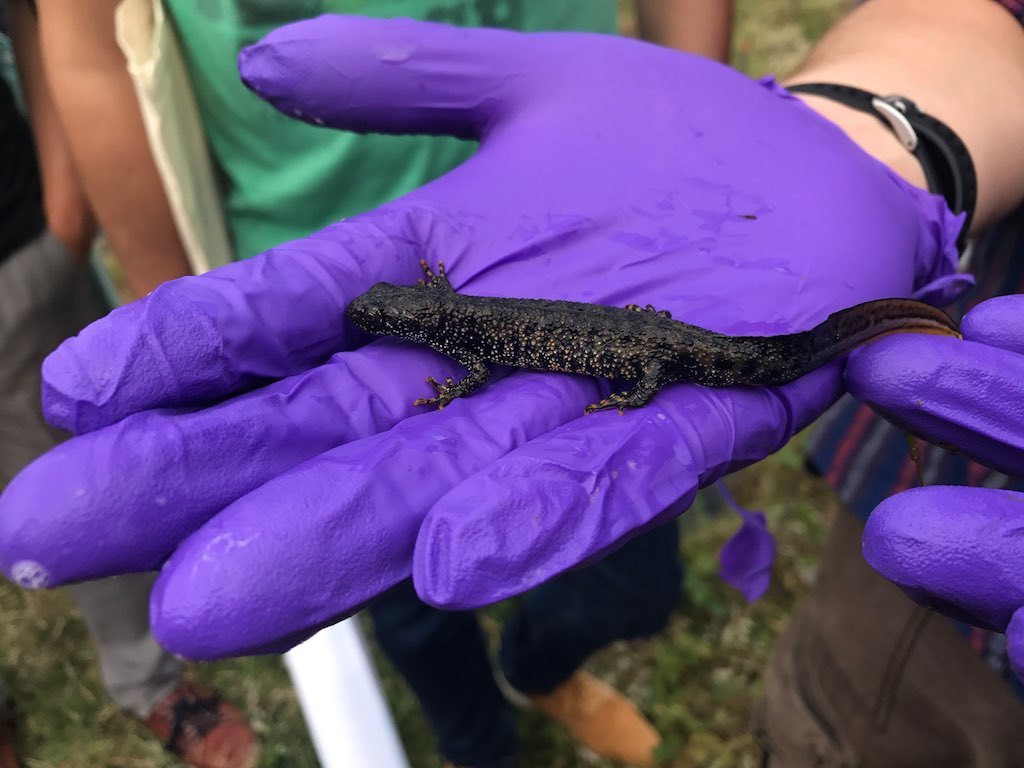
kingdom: Animalia
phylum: Chordata
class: Amphibia
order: Caudata
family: Salamandridae
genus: Triturus
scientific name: Triturus cristatus
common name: Crested newt
